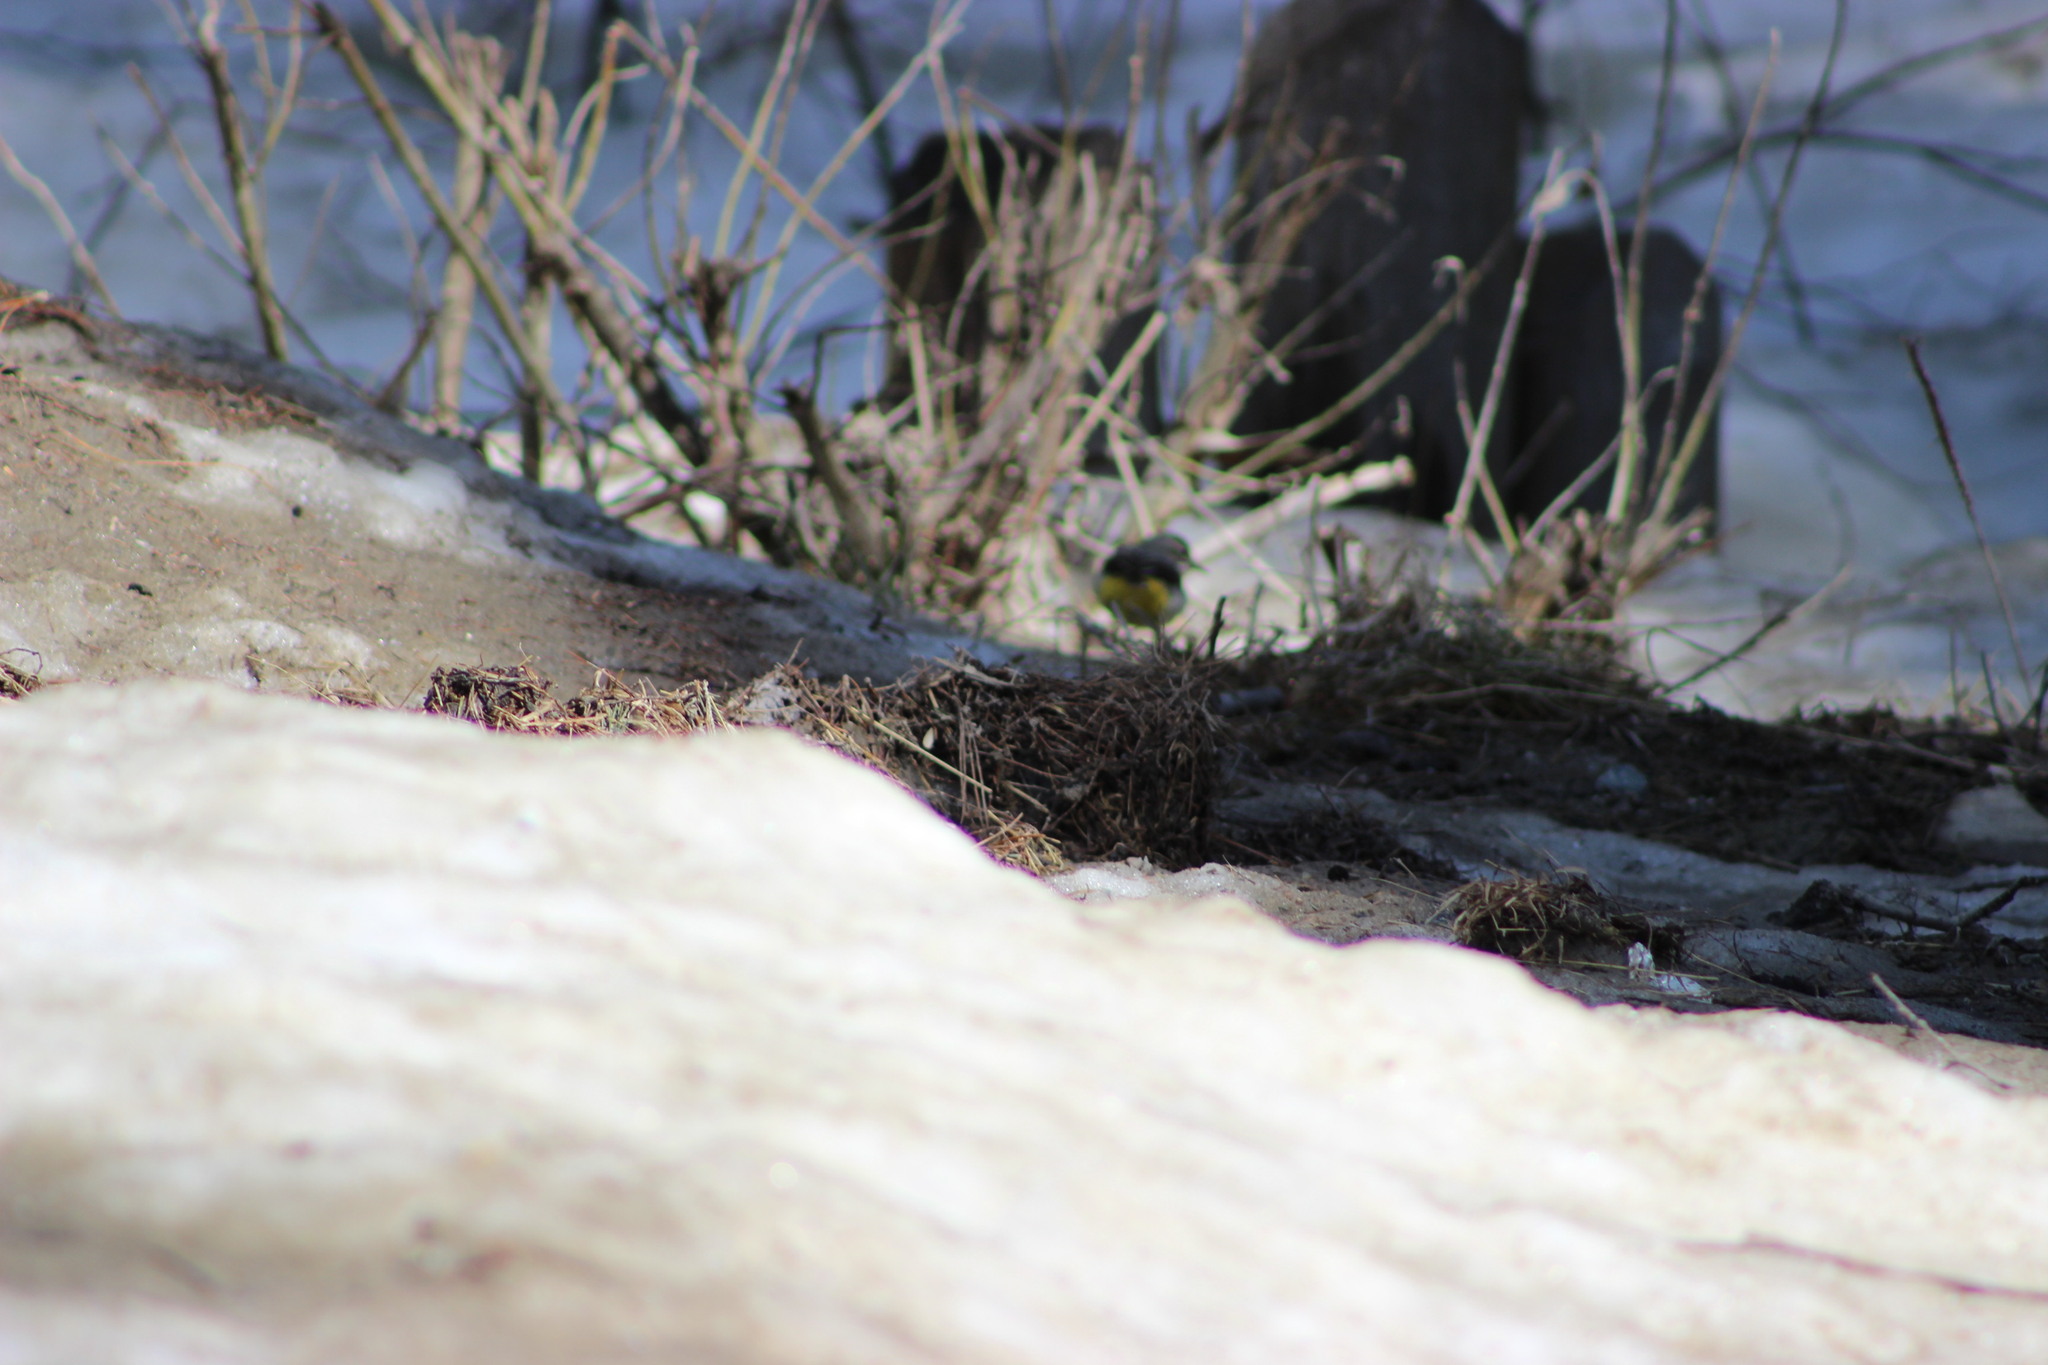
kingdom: Animalia
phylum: Chordata
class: Aves
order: Passeriformes
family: Motacillidae
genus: Motacilla
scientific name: Motacilla cinerea
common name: Grey wagtail
